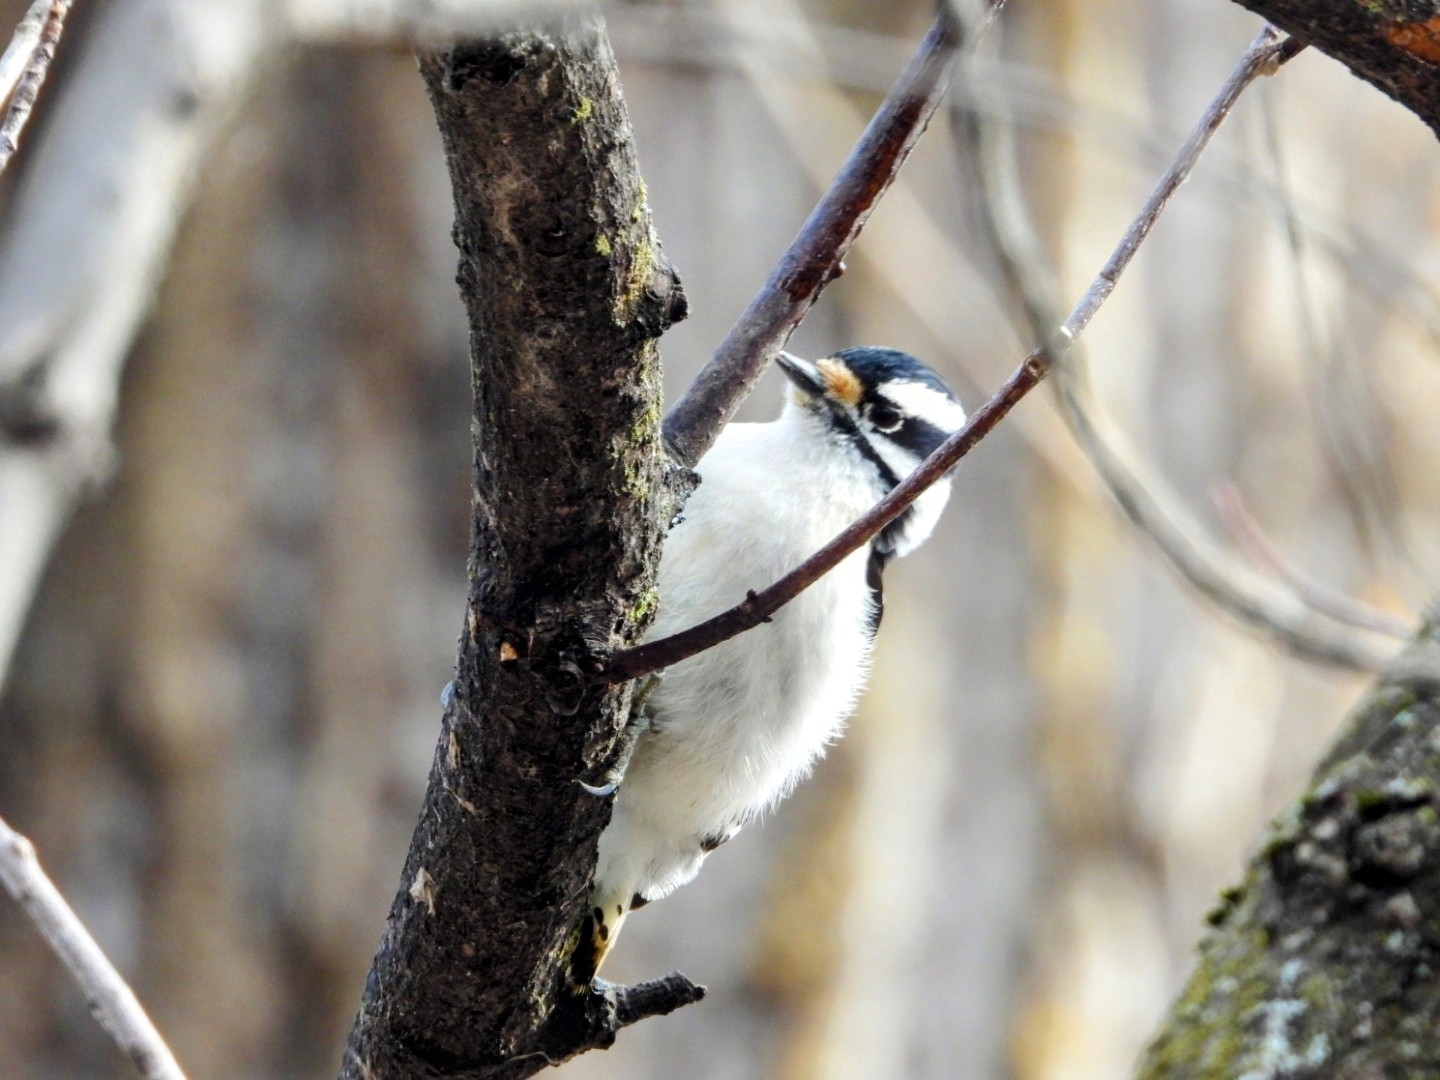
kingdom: Animalia
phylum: Chordata
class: Aves
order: Piciformes
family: Picidae
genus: Dryobates
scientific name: Dryobates pubescens
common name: Downy woodpecker
